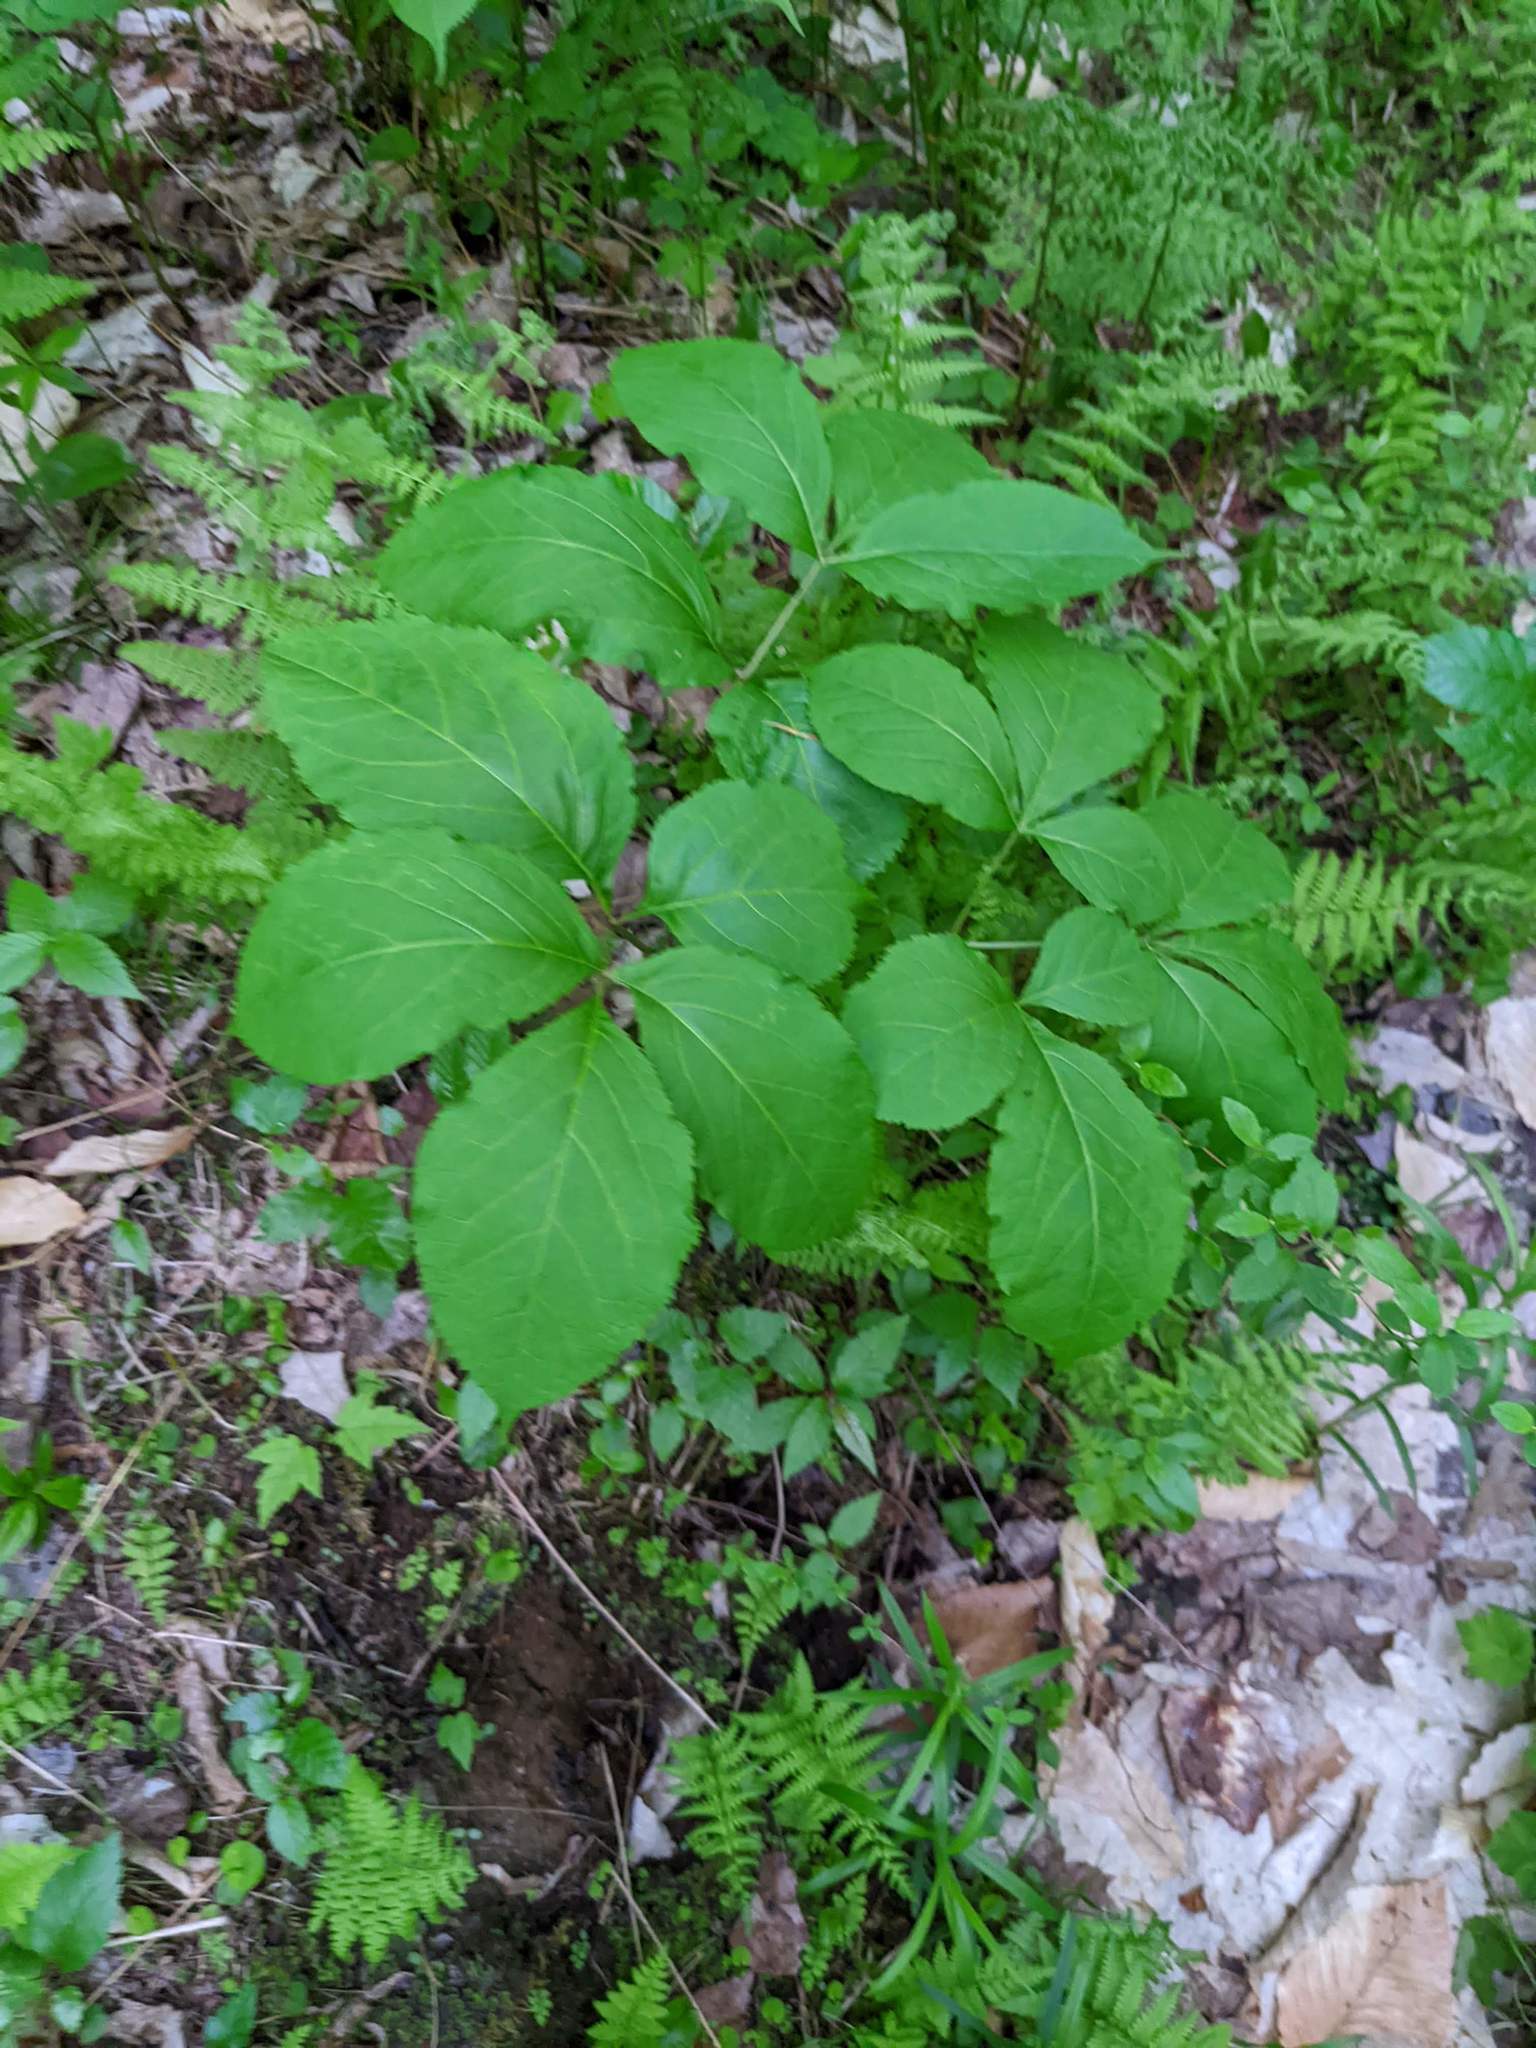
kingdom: Plantae
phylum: Tracheophyta
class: Magnoliopsida
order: Apiales
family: Araliaceae
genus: Aralia
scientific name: Aralia nudicaulis
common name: Wild sarsaparilla
